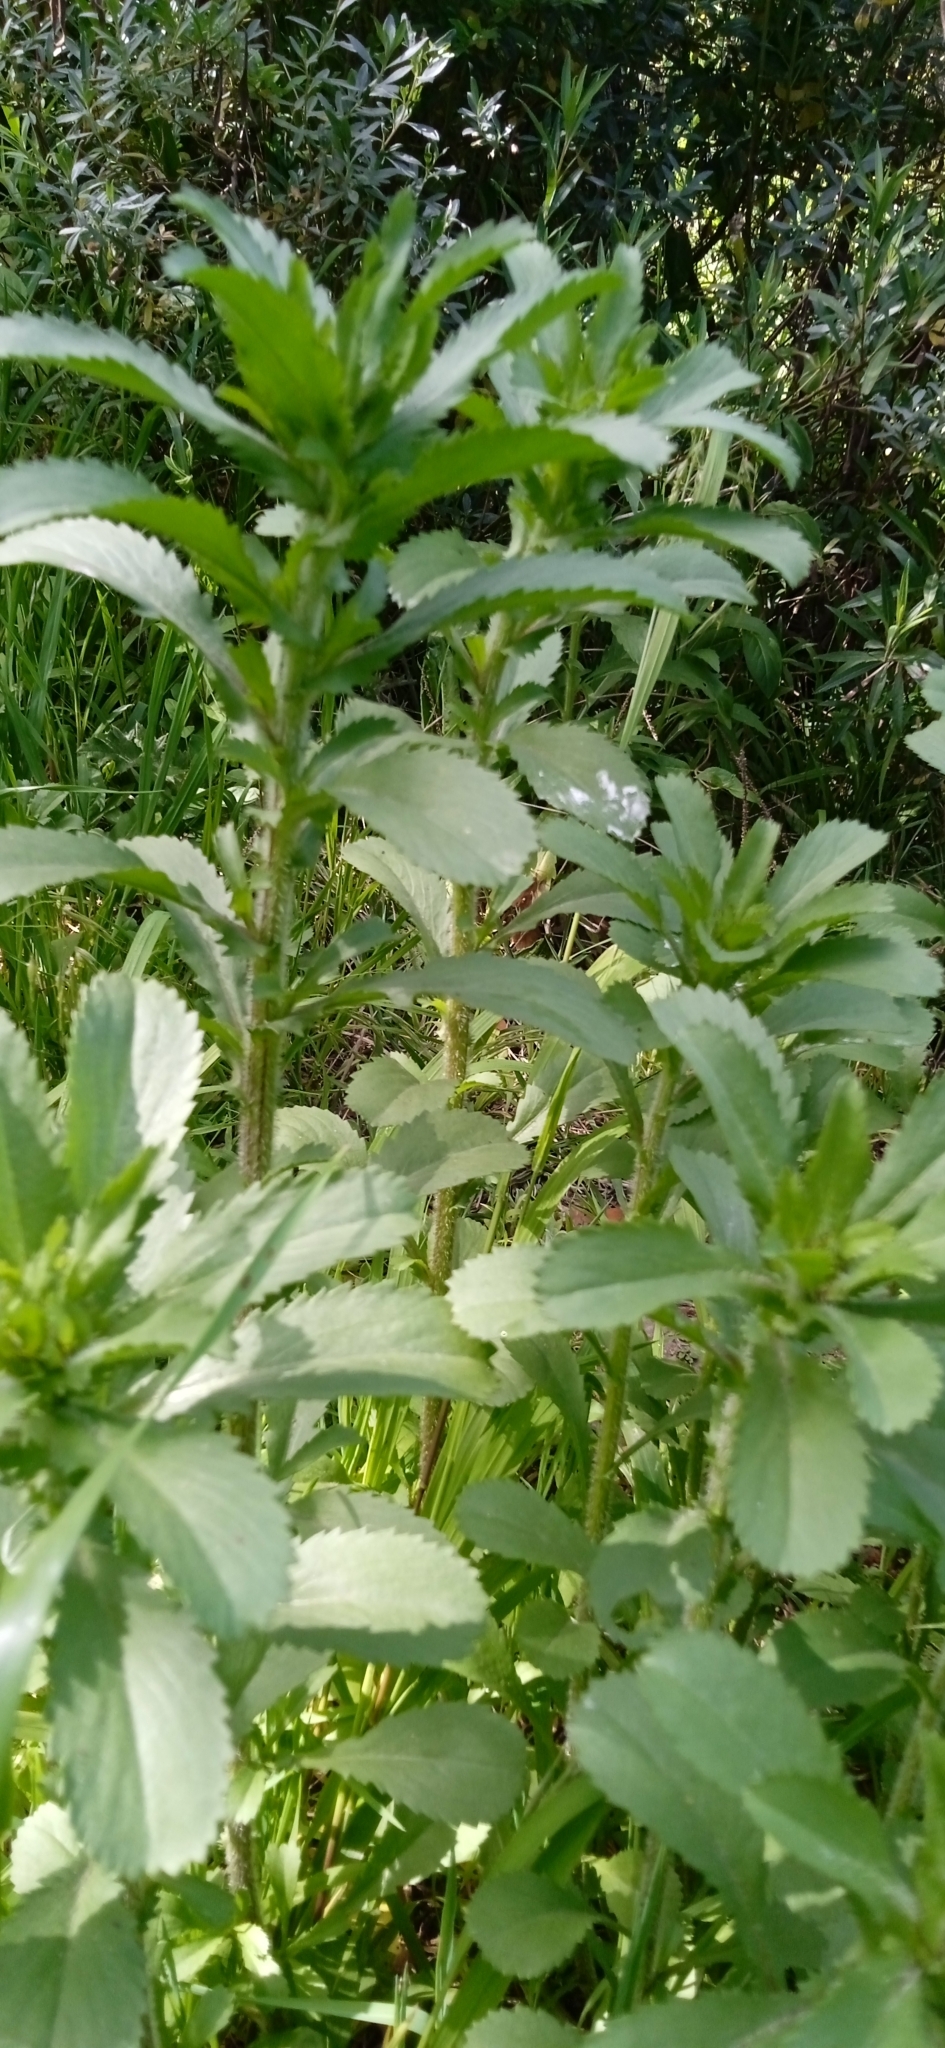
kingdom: Plantae
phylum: Tracheophyta
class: Magnoliopsida
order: Asterales
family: Asteraceae
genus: Coleostephus
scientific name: Coleostephus myconis
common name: Mediterranean marigold
